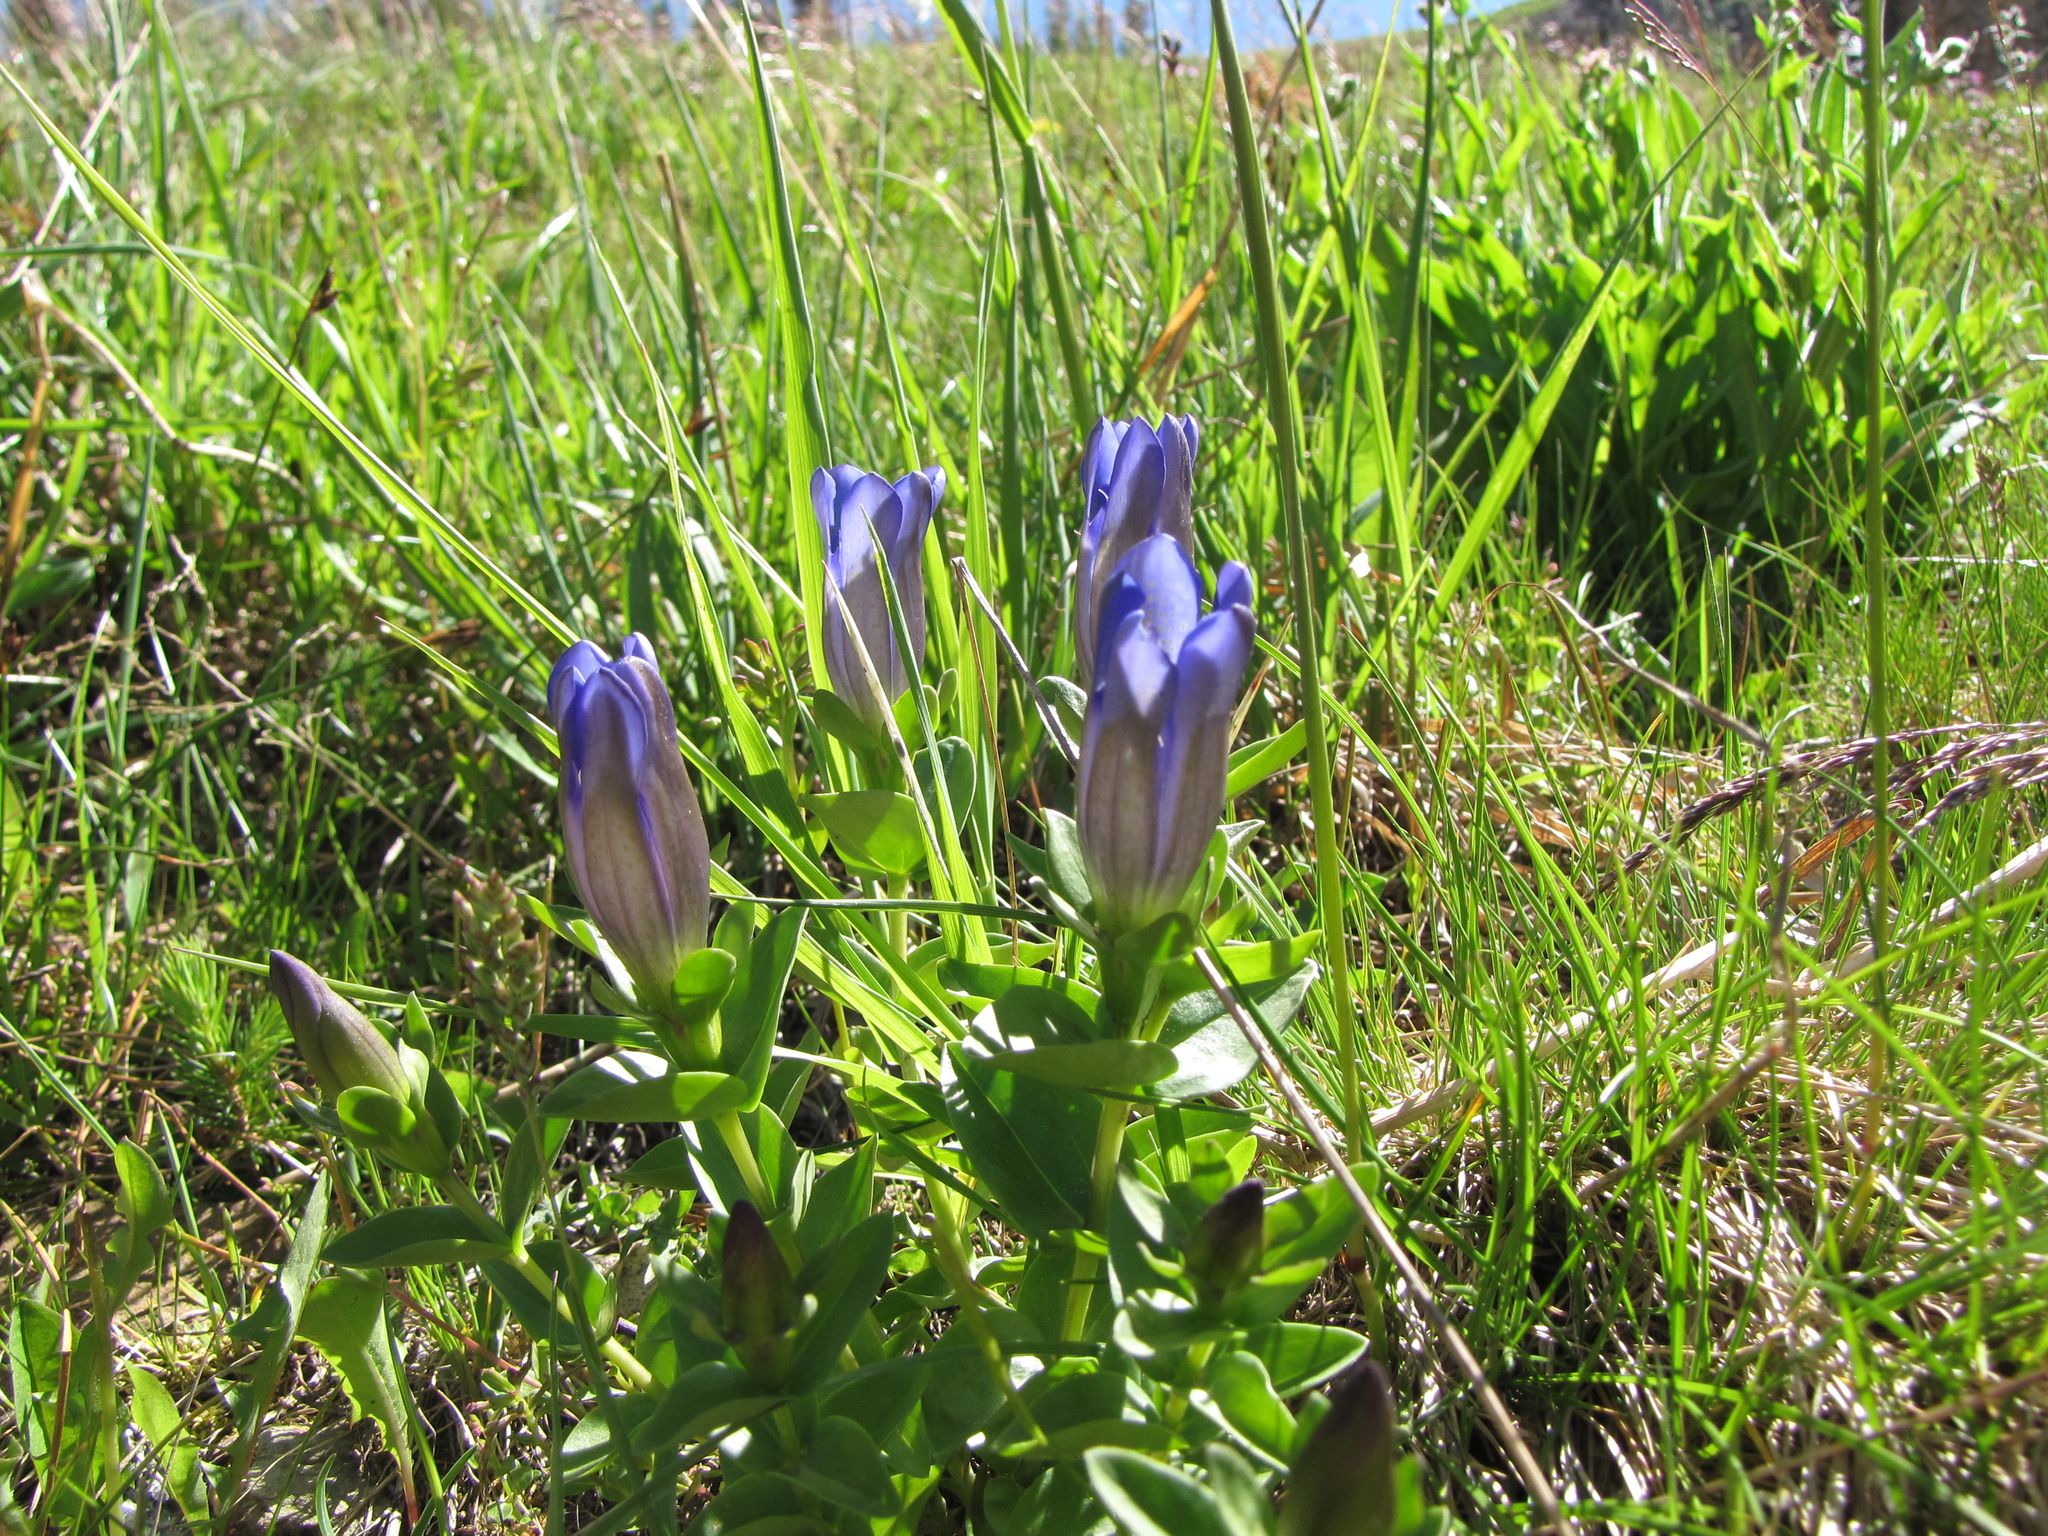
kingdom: Plantae
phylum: Tracheophyta
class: Magnoliopsida
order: Gentianales
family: Gentianaceae
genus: Gentiana
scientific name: Gentiana calycosa
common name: Rainier pleated gentian
